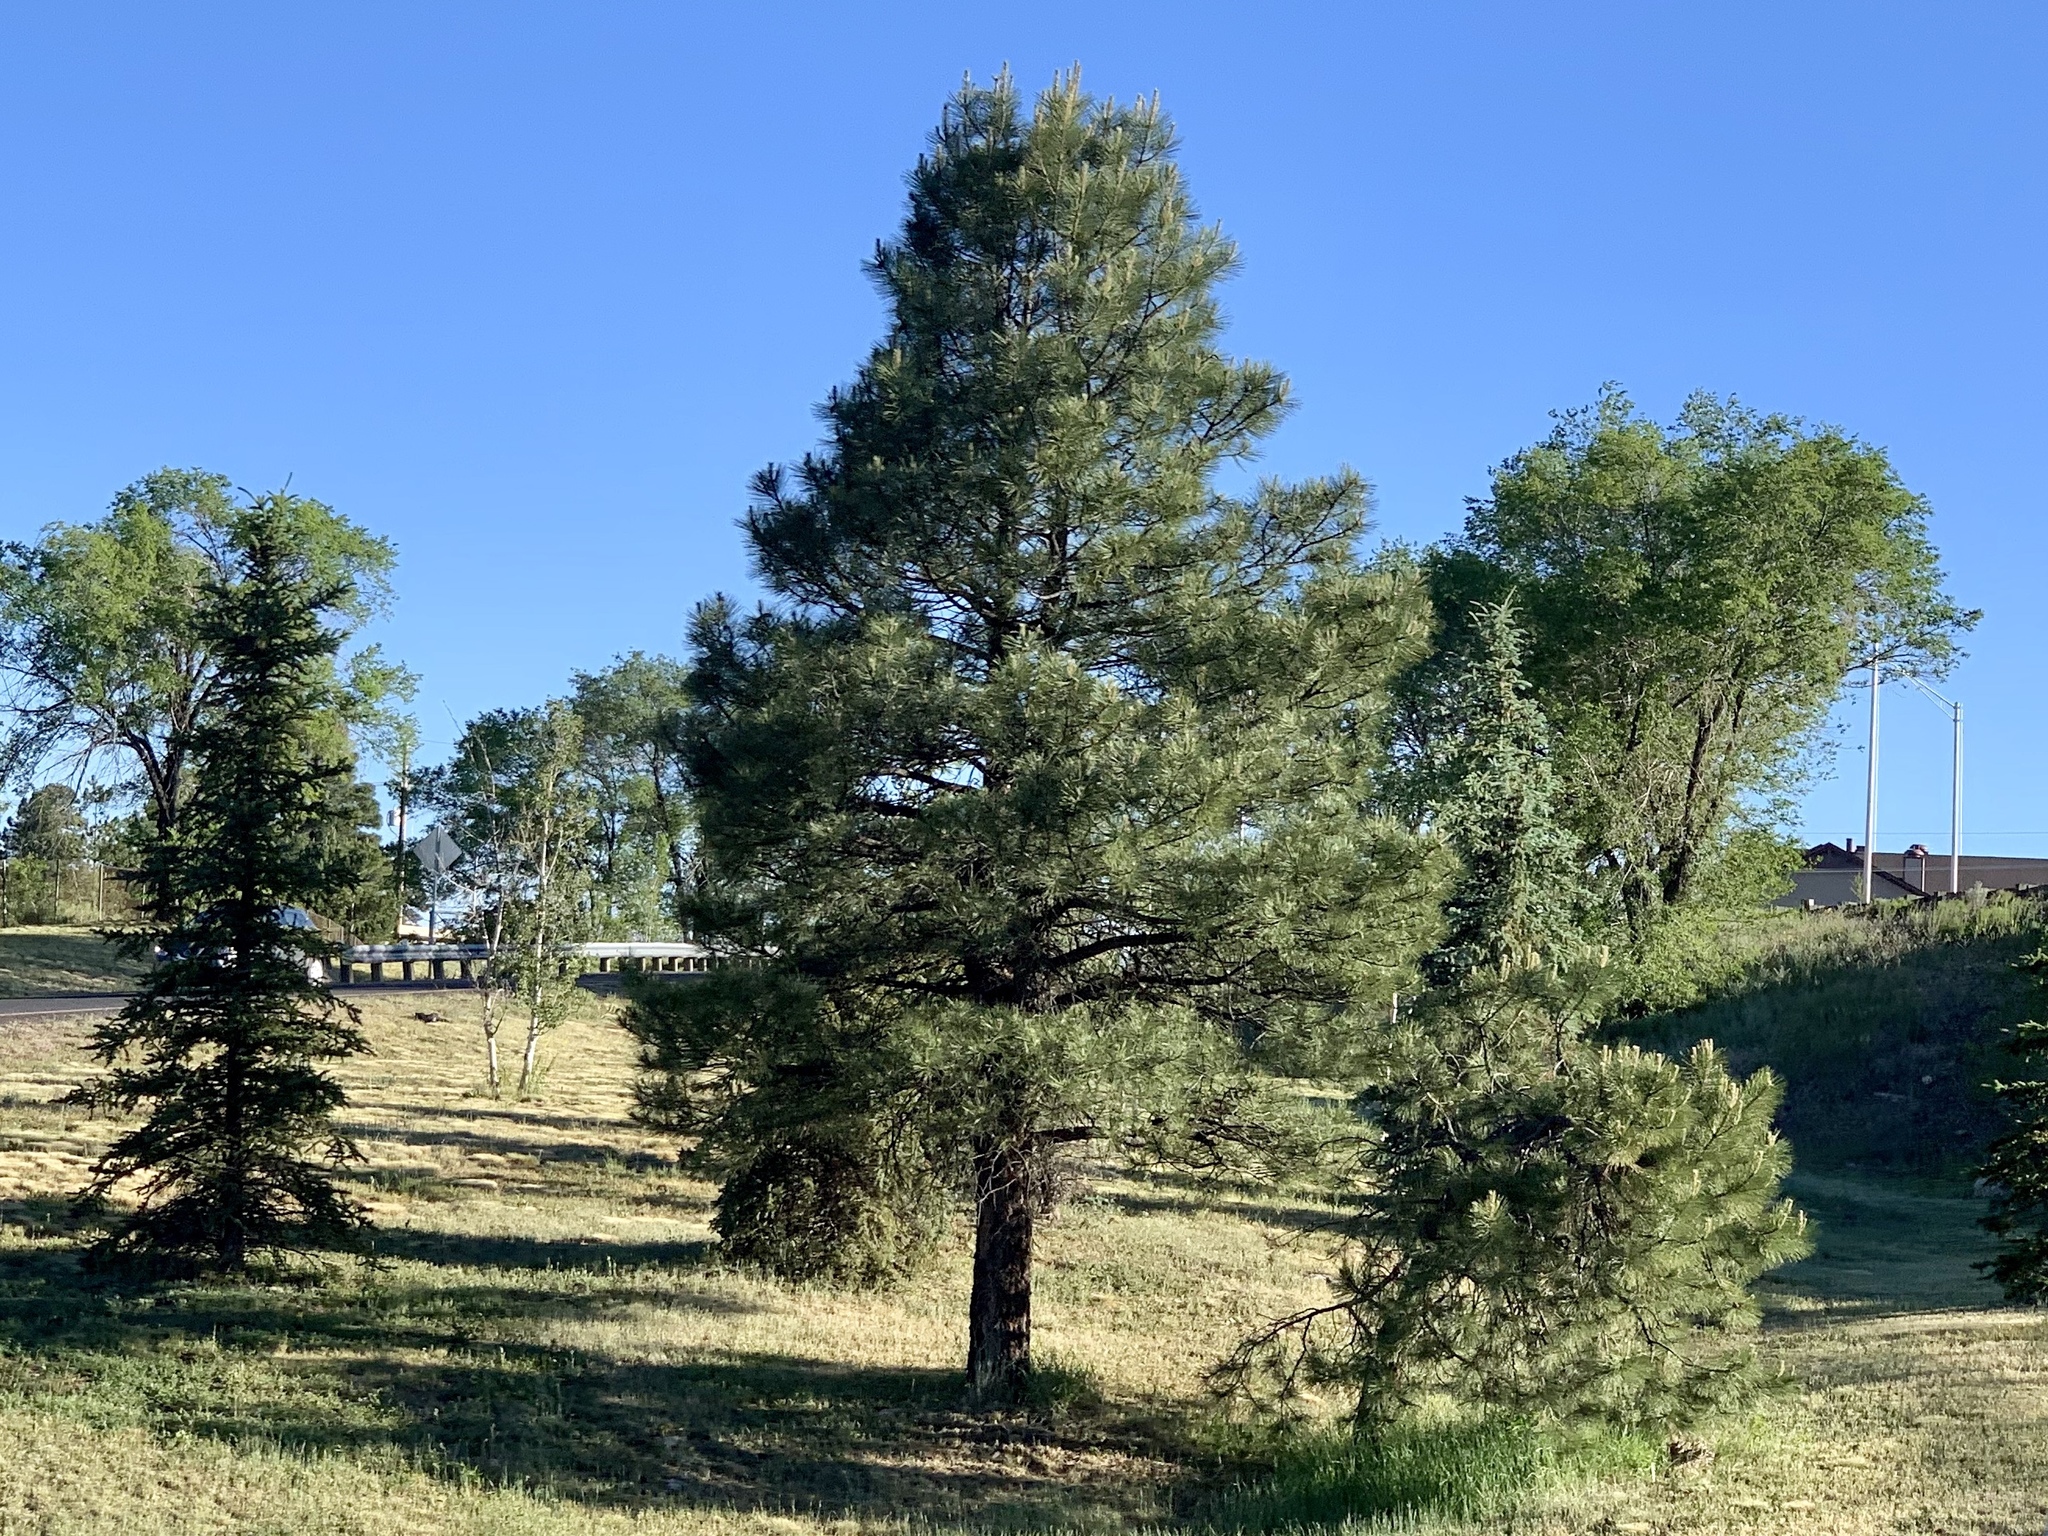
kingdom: Plantae
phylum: Tracheophyta
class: Pinopsida
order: Pinales
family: Pinaceae
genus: Pinus
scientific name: Pinus ponderosa
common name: Western yellow-pine
